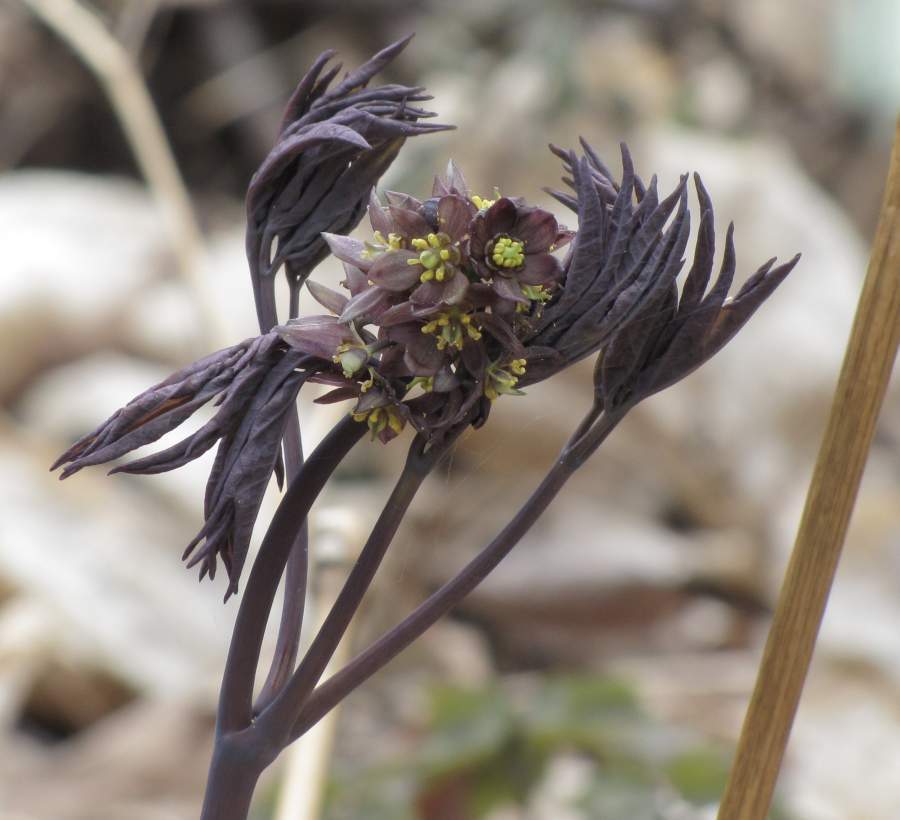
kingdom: Plantae
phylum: Tracheophyta
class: Magnoliopsida
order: Ranunculales
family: Berberidaceae
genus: Caulophyllum
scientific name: Caulophyllum giganteum
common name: Blue cohosh
